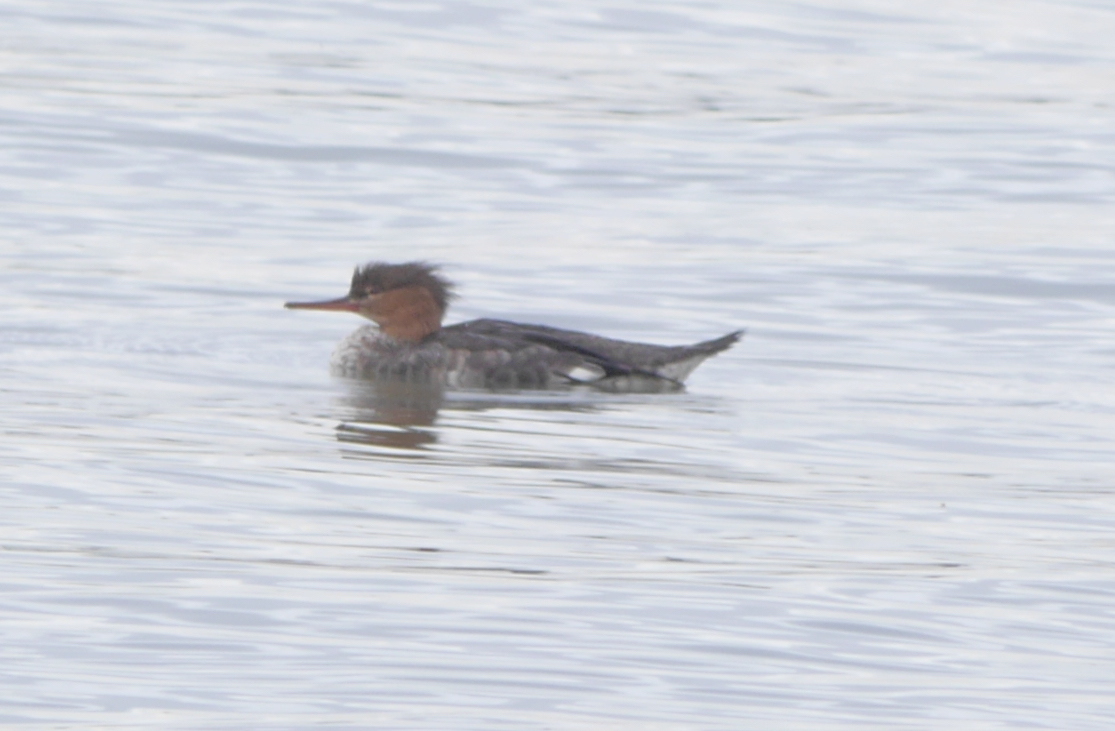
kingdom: Animalia
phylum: Chordata
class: Aves
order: Anseriformes
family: Anatidae
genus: Mergus
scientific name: Mergus serrator
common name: Red-breasted merganser
